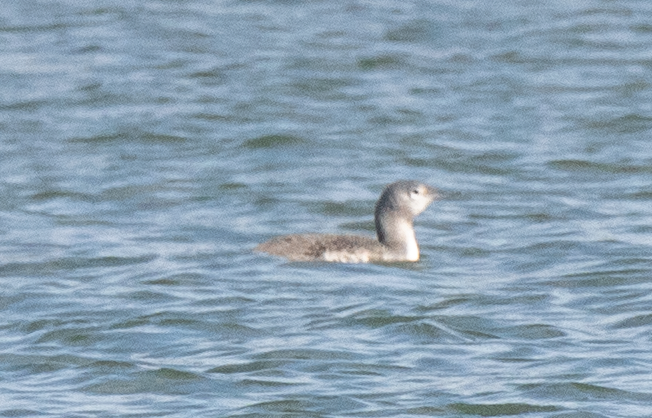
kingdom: Animalia
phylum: Chordata
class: Aves
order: Gaviiformes
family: Gaviidae
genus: Gavia
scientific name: Gavia stellata
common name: Red-throated loon
